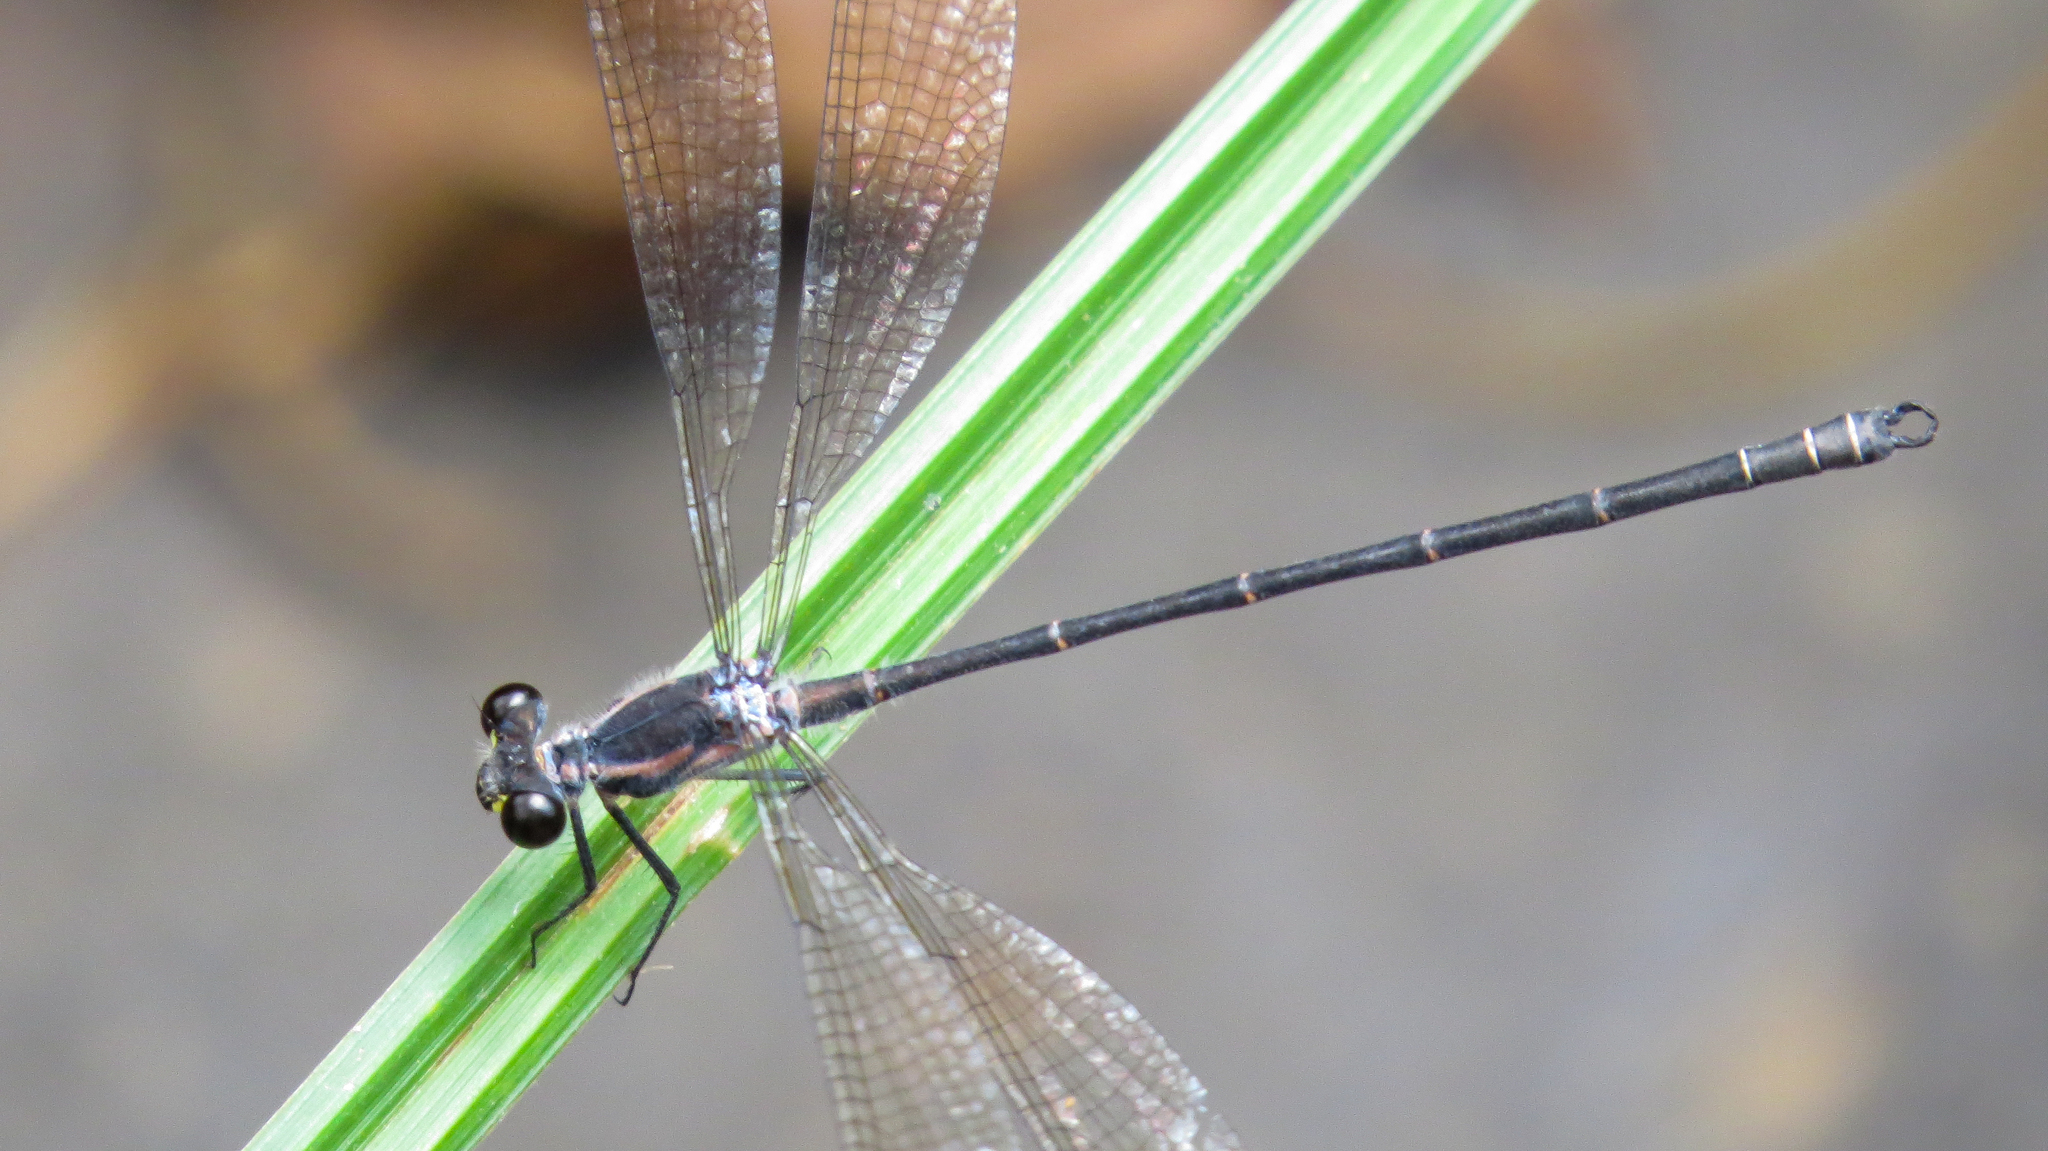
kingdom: Animalia
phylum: Arthropoda
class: Insecta
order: Odonata
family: Argiolestidae
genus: Austroargiolestes
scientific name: Austroargiolestes icteromelas
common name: Common flatwing
